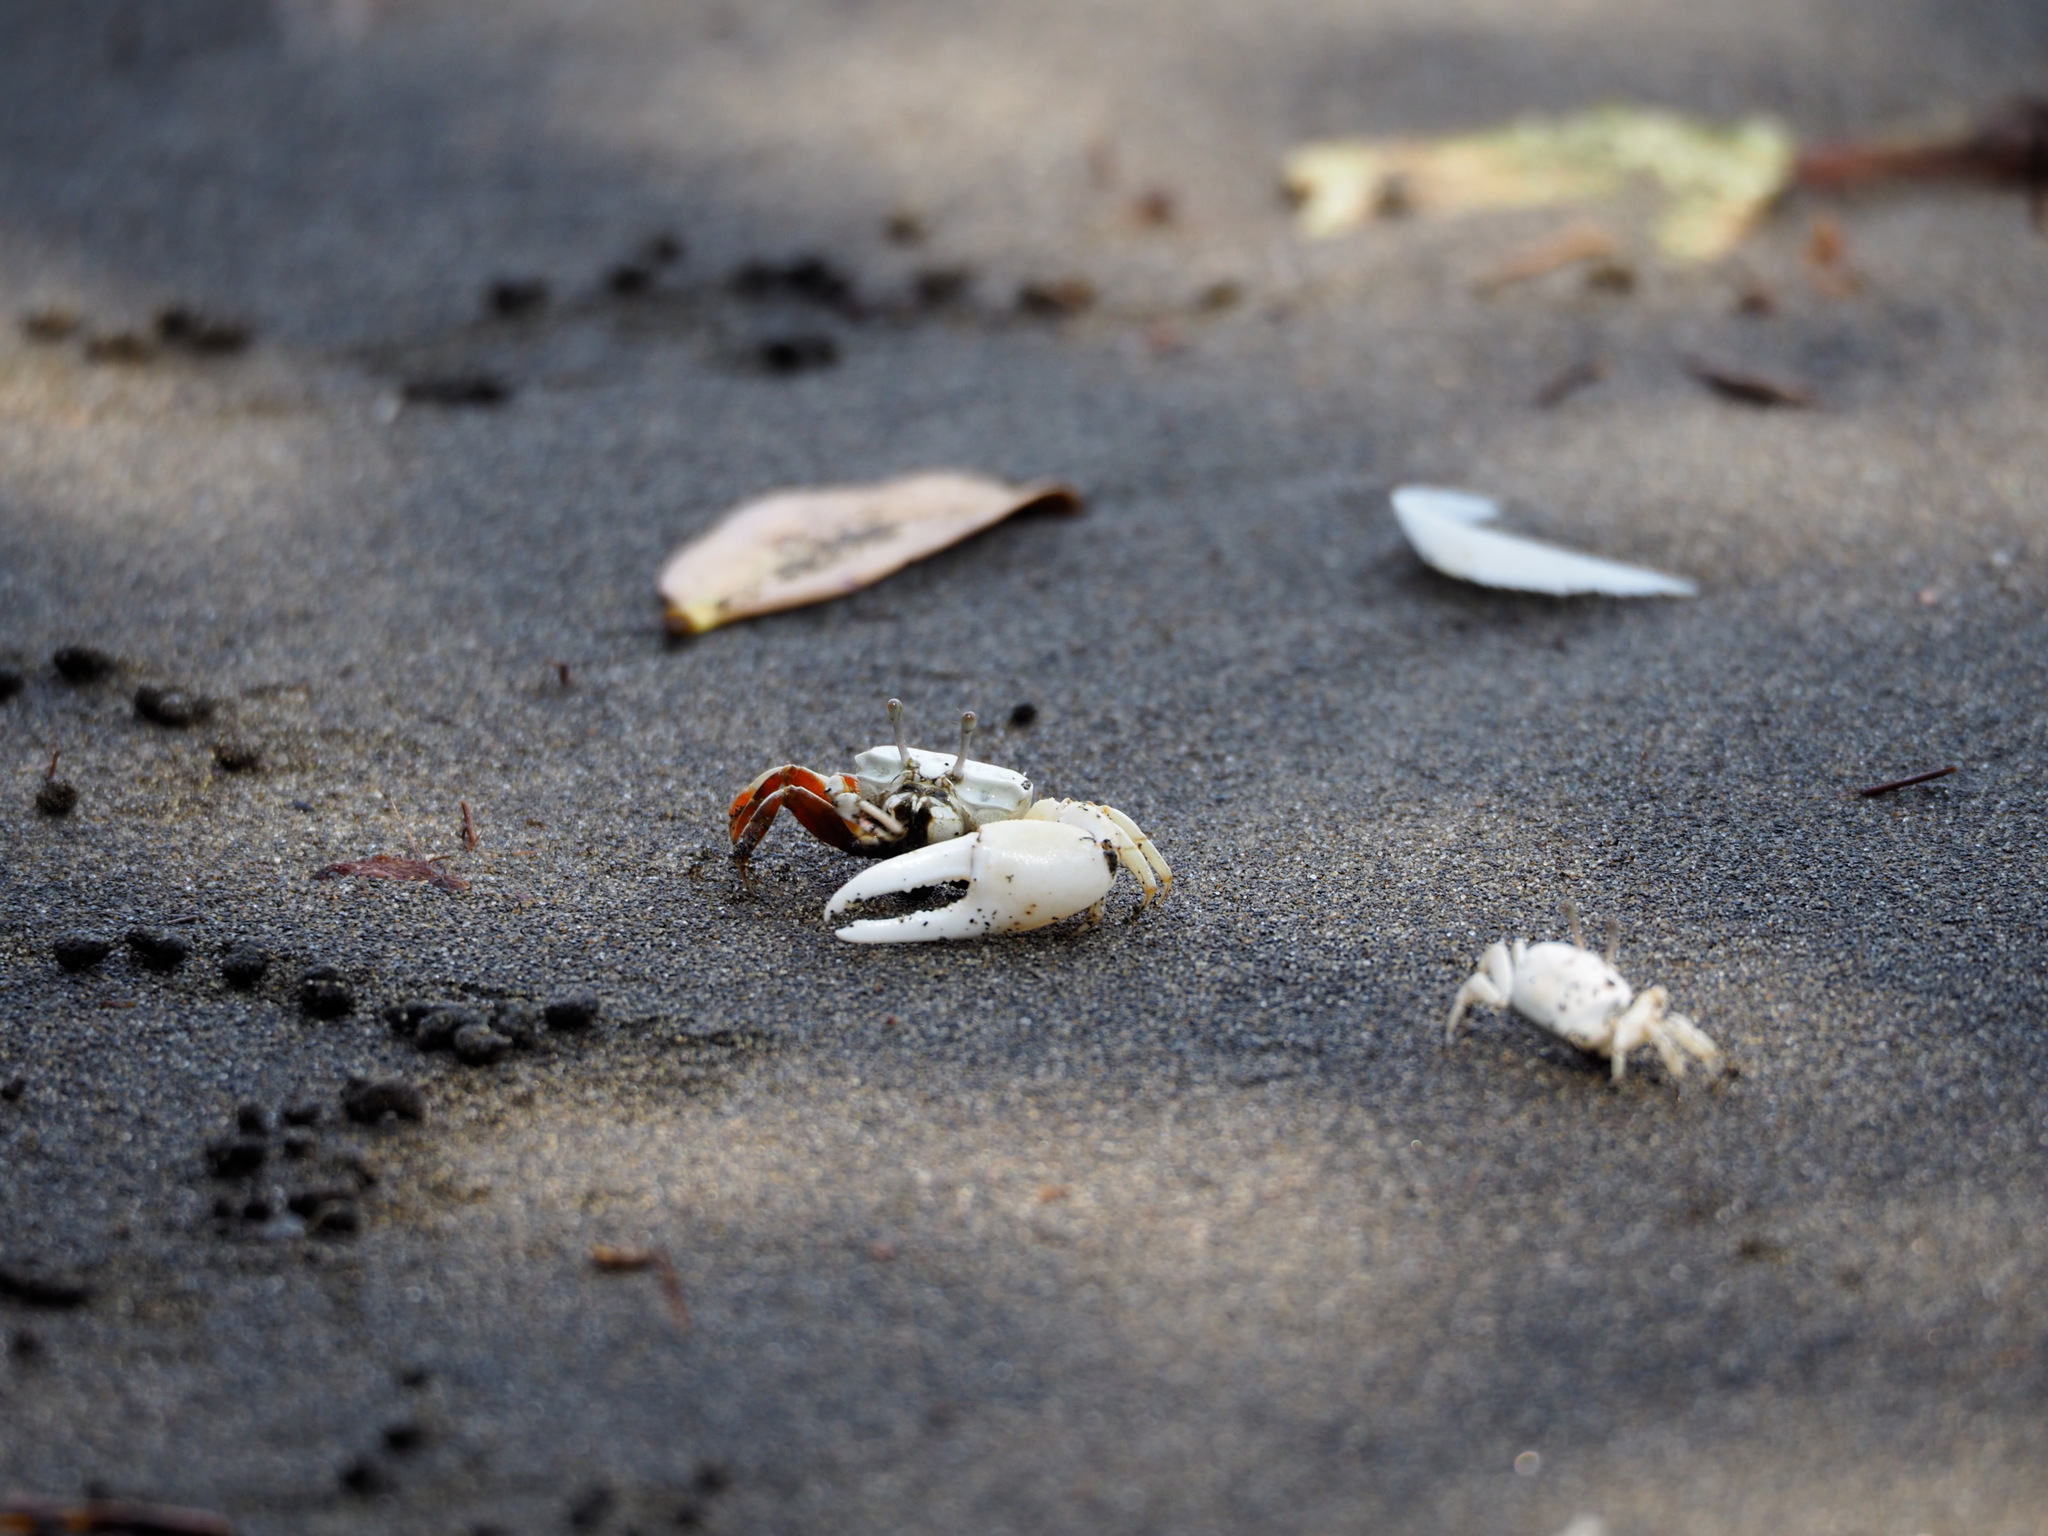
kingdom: Animalia
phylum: Arthropoda
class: Malacostraca
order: Decapoda
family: Ocypodidae
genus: Austruca
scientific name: Austruca lactea
